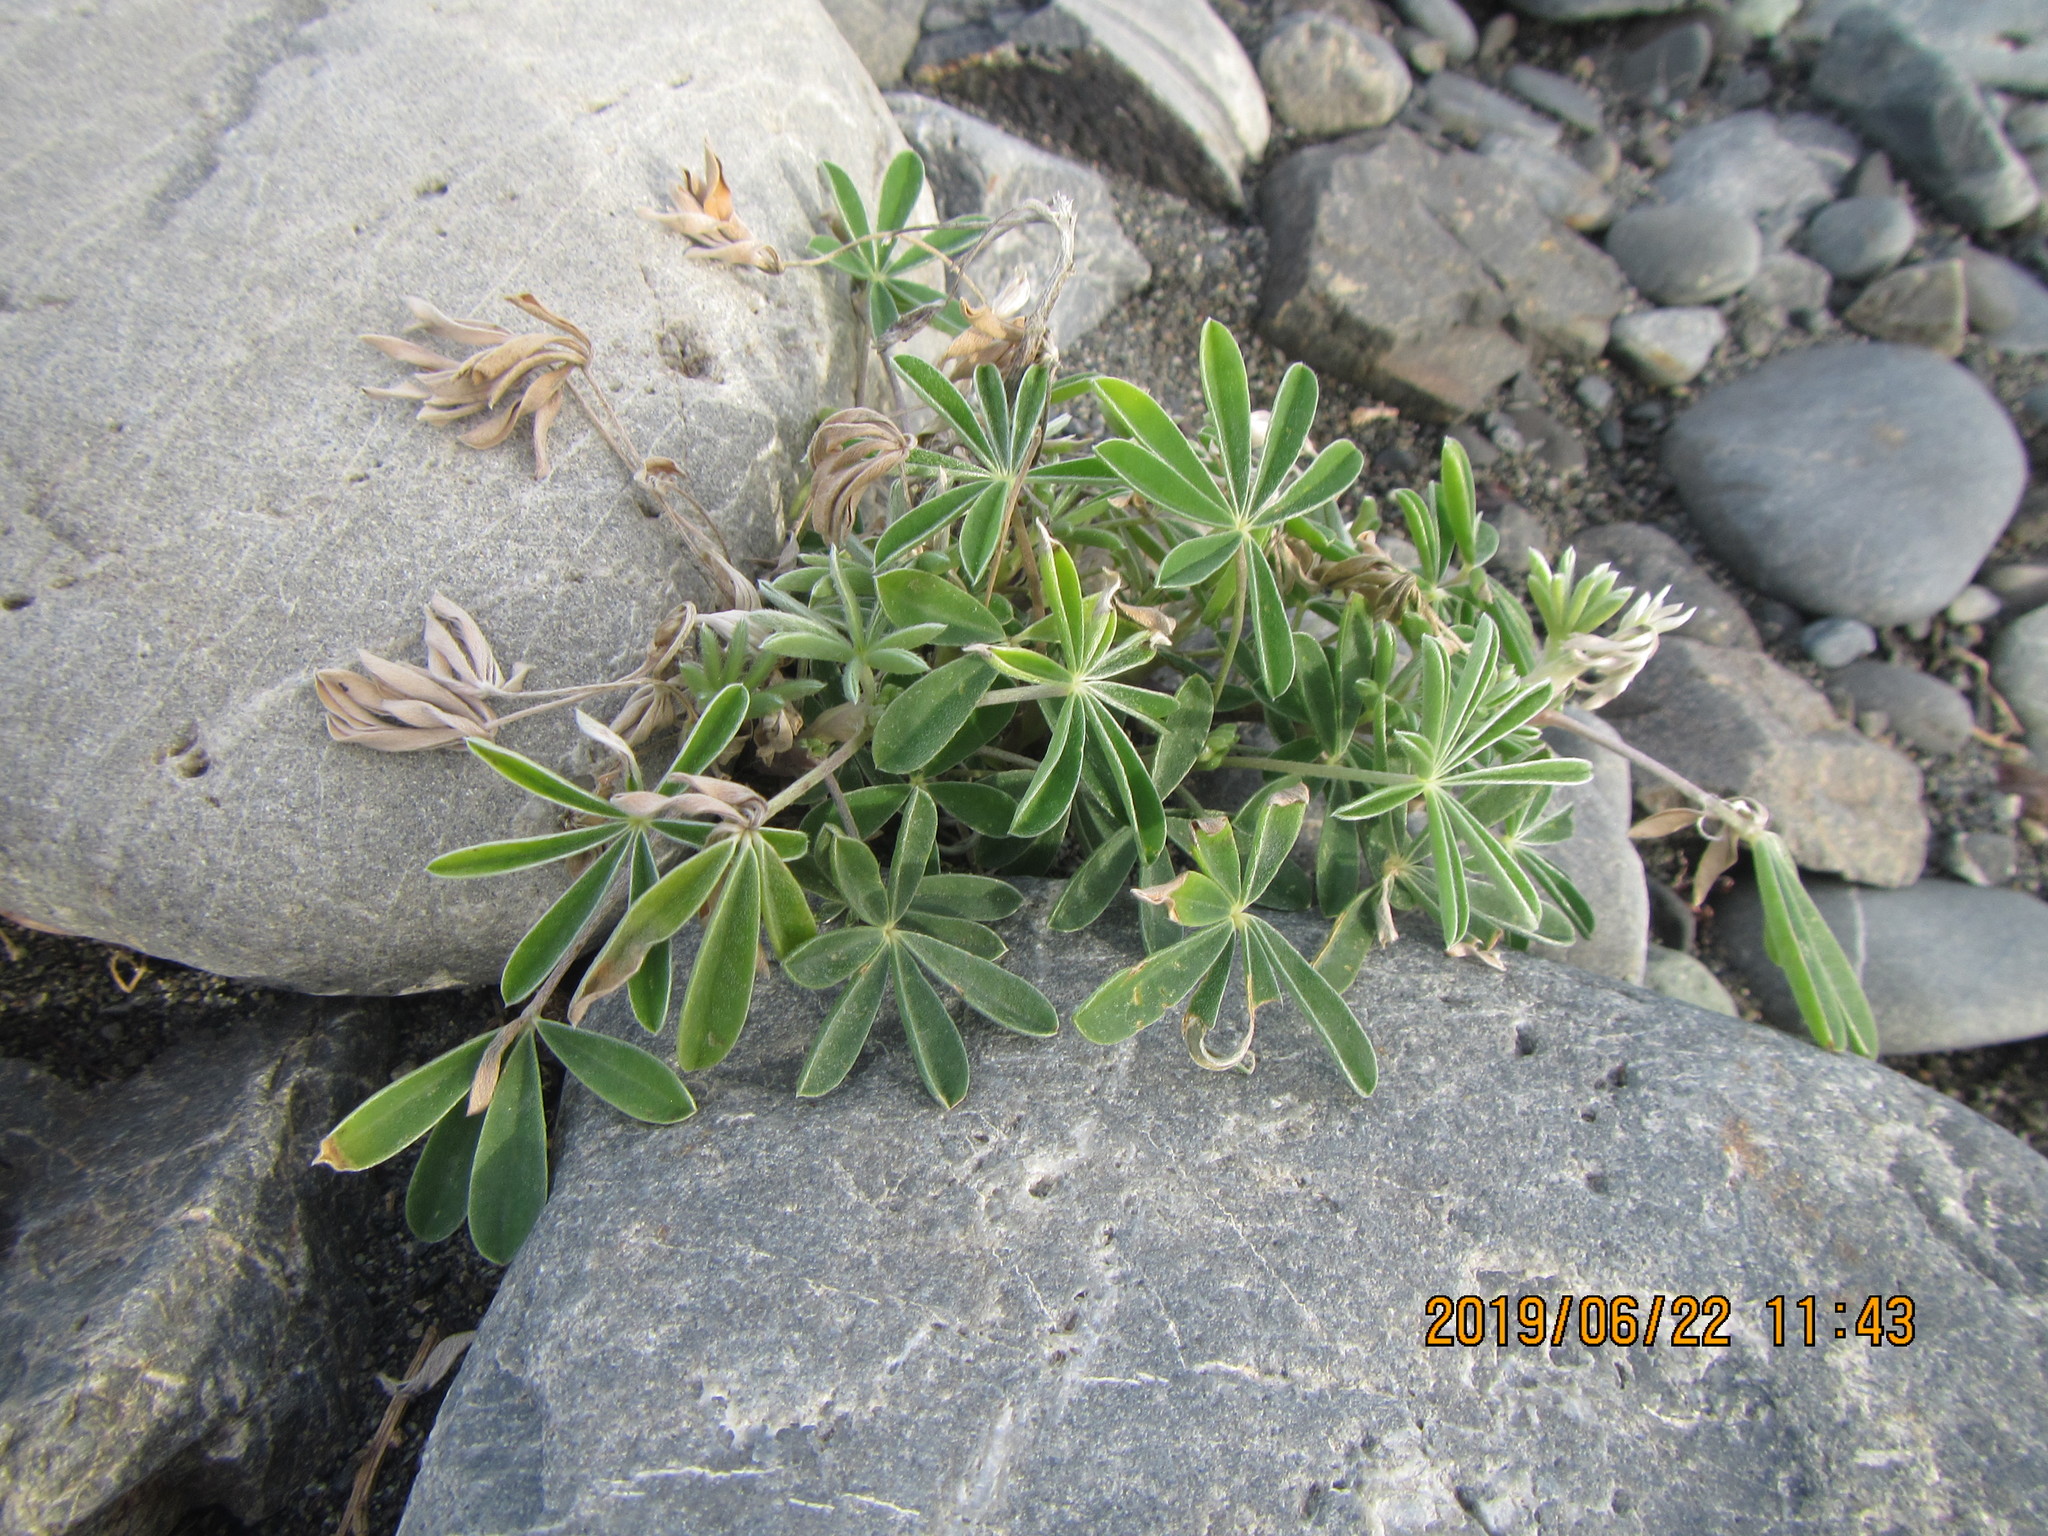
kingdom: Plantae
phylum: Tracheophyta
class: Magnoliopsida
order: Fabales
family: Fabaceae
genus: Lupinus
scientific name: Lupinus arboreus
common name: Yellow bush lupine
